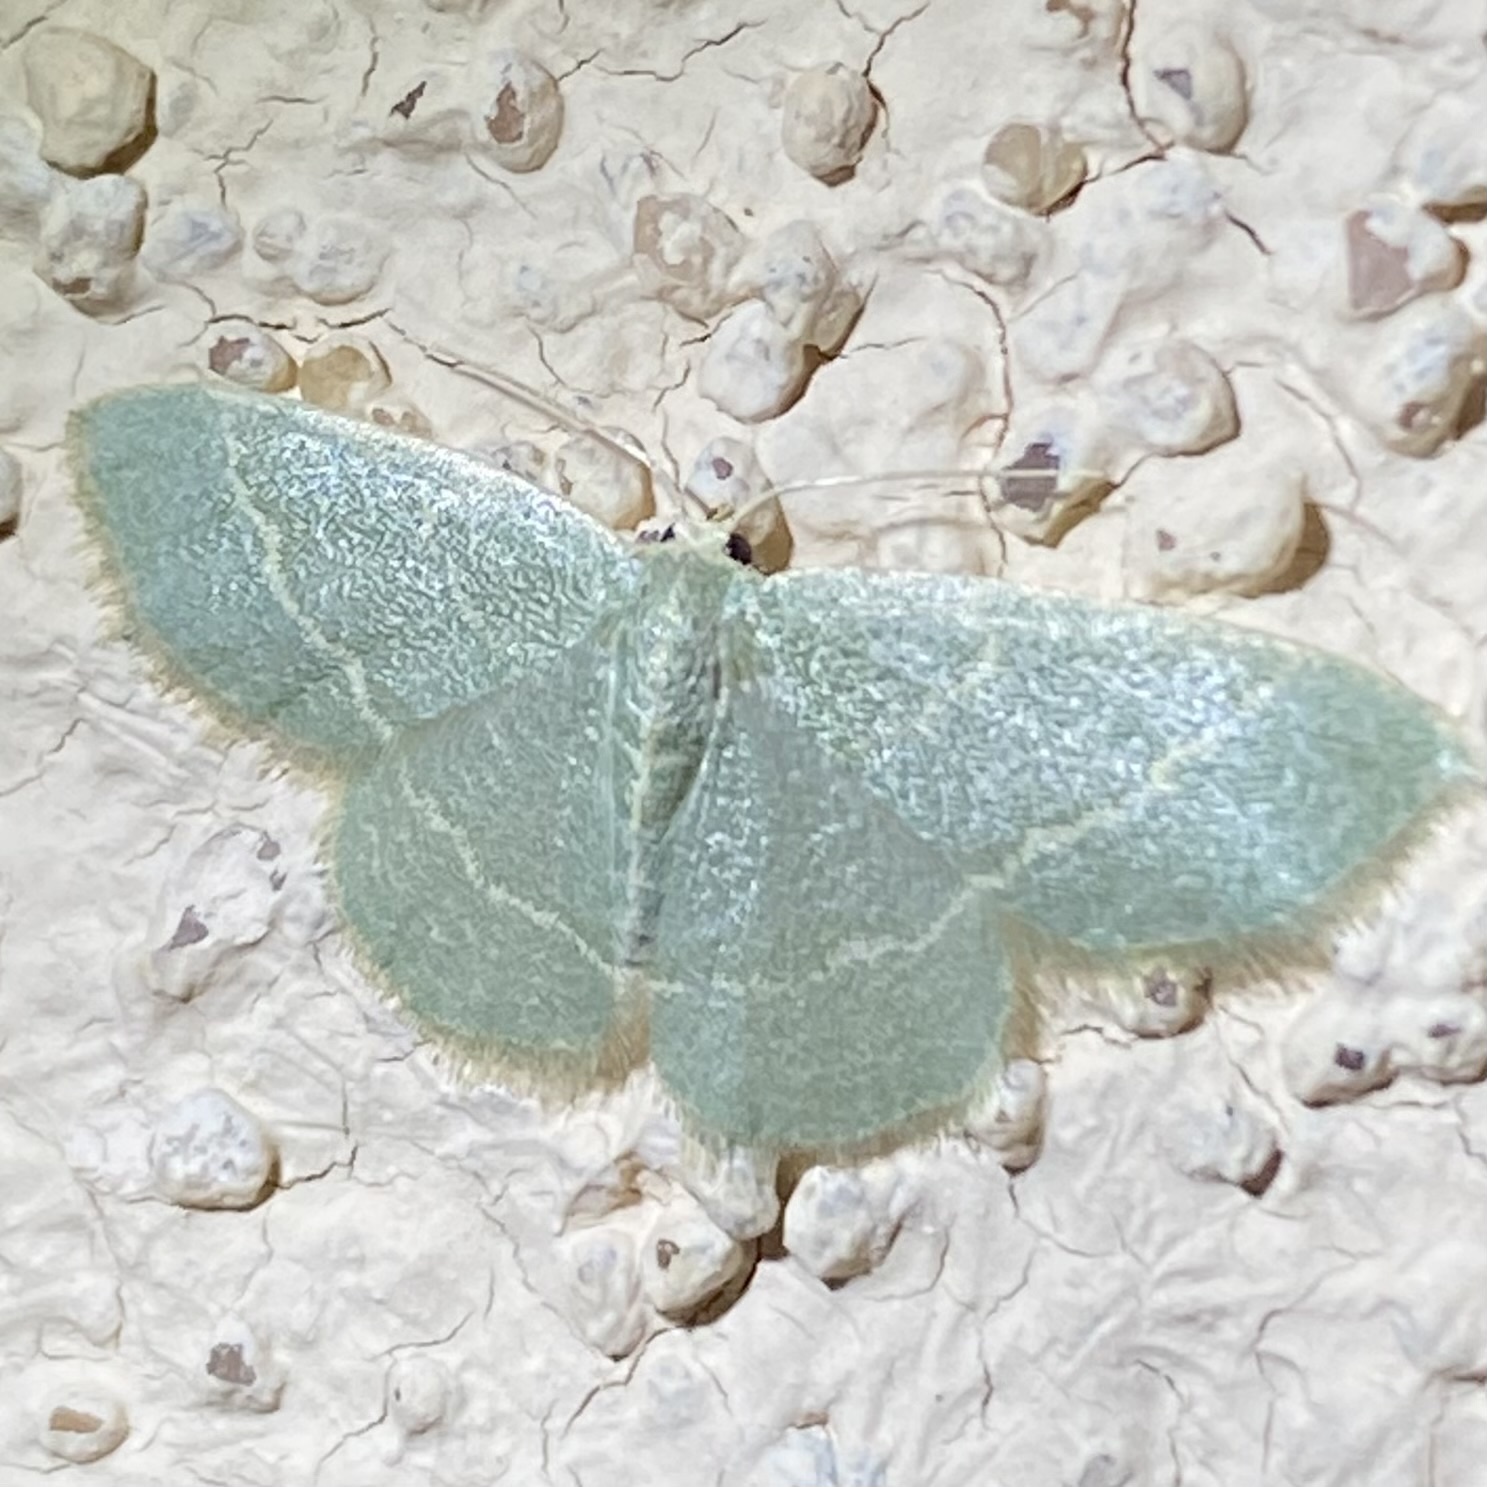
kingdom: Animalia
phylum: Arthropoda
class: Insecta
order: Lepidoptera
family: Geometridae
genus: Chlorochlamys
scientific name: Chlorochlamys
